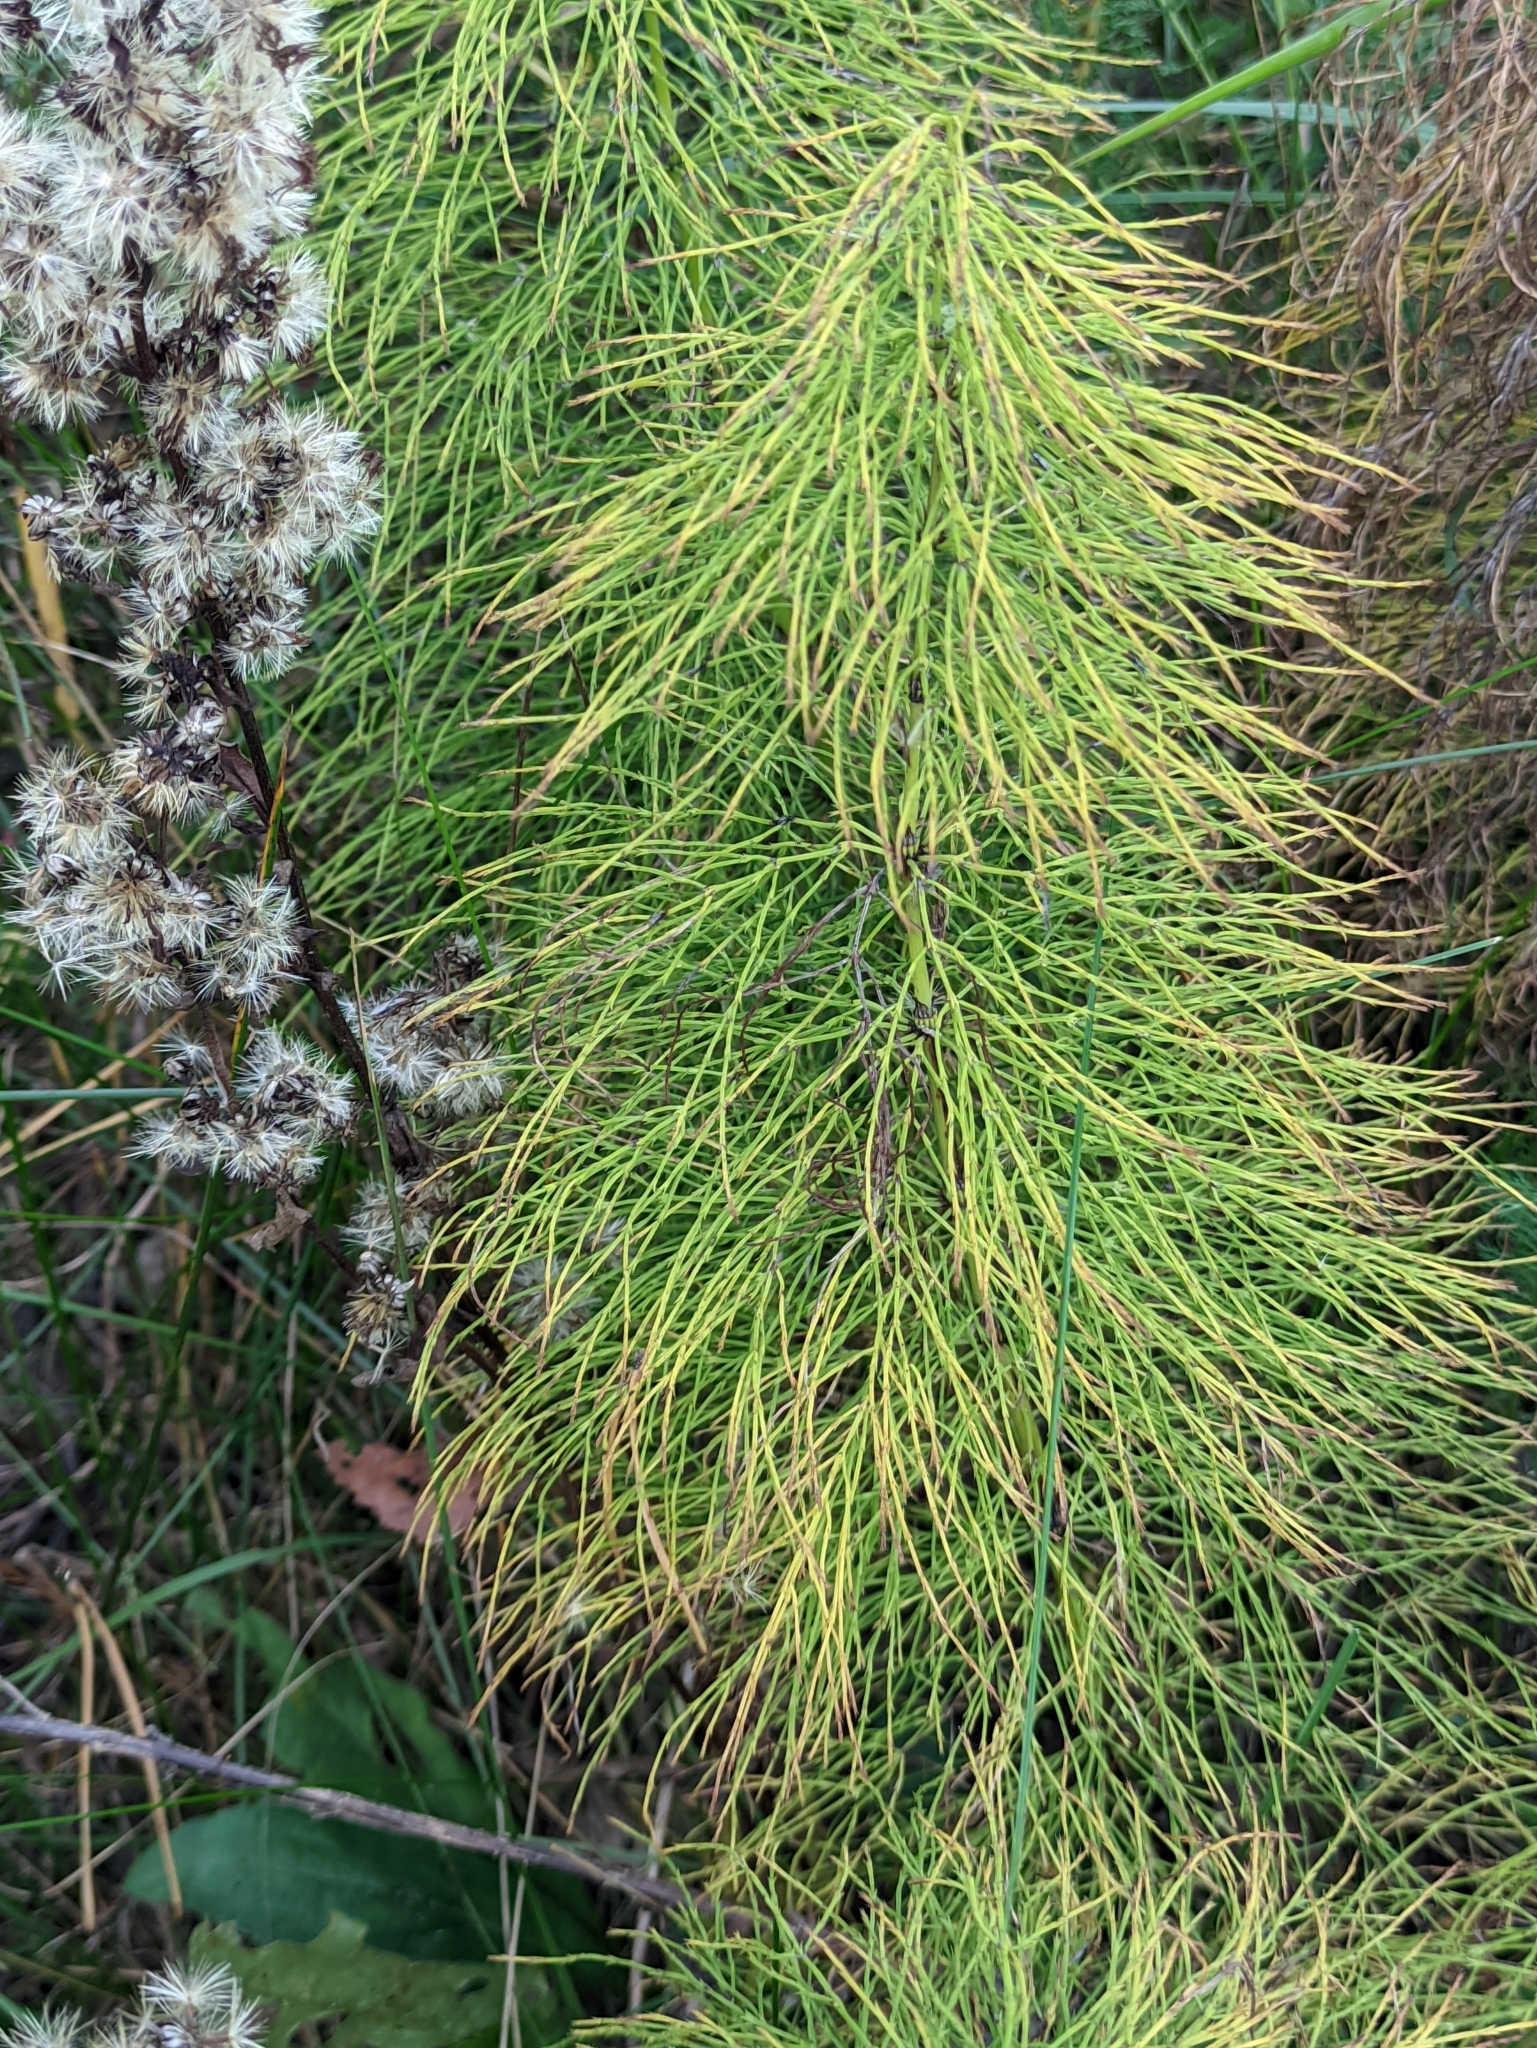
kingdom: Plantae
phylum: Tracheophyta
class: Polypodiopsida
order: Equisetales
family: Equisetaceae
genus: Equisetum
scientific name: Equisetum sylvaticum
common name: Wood horsetail
